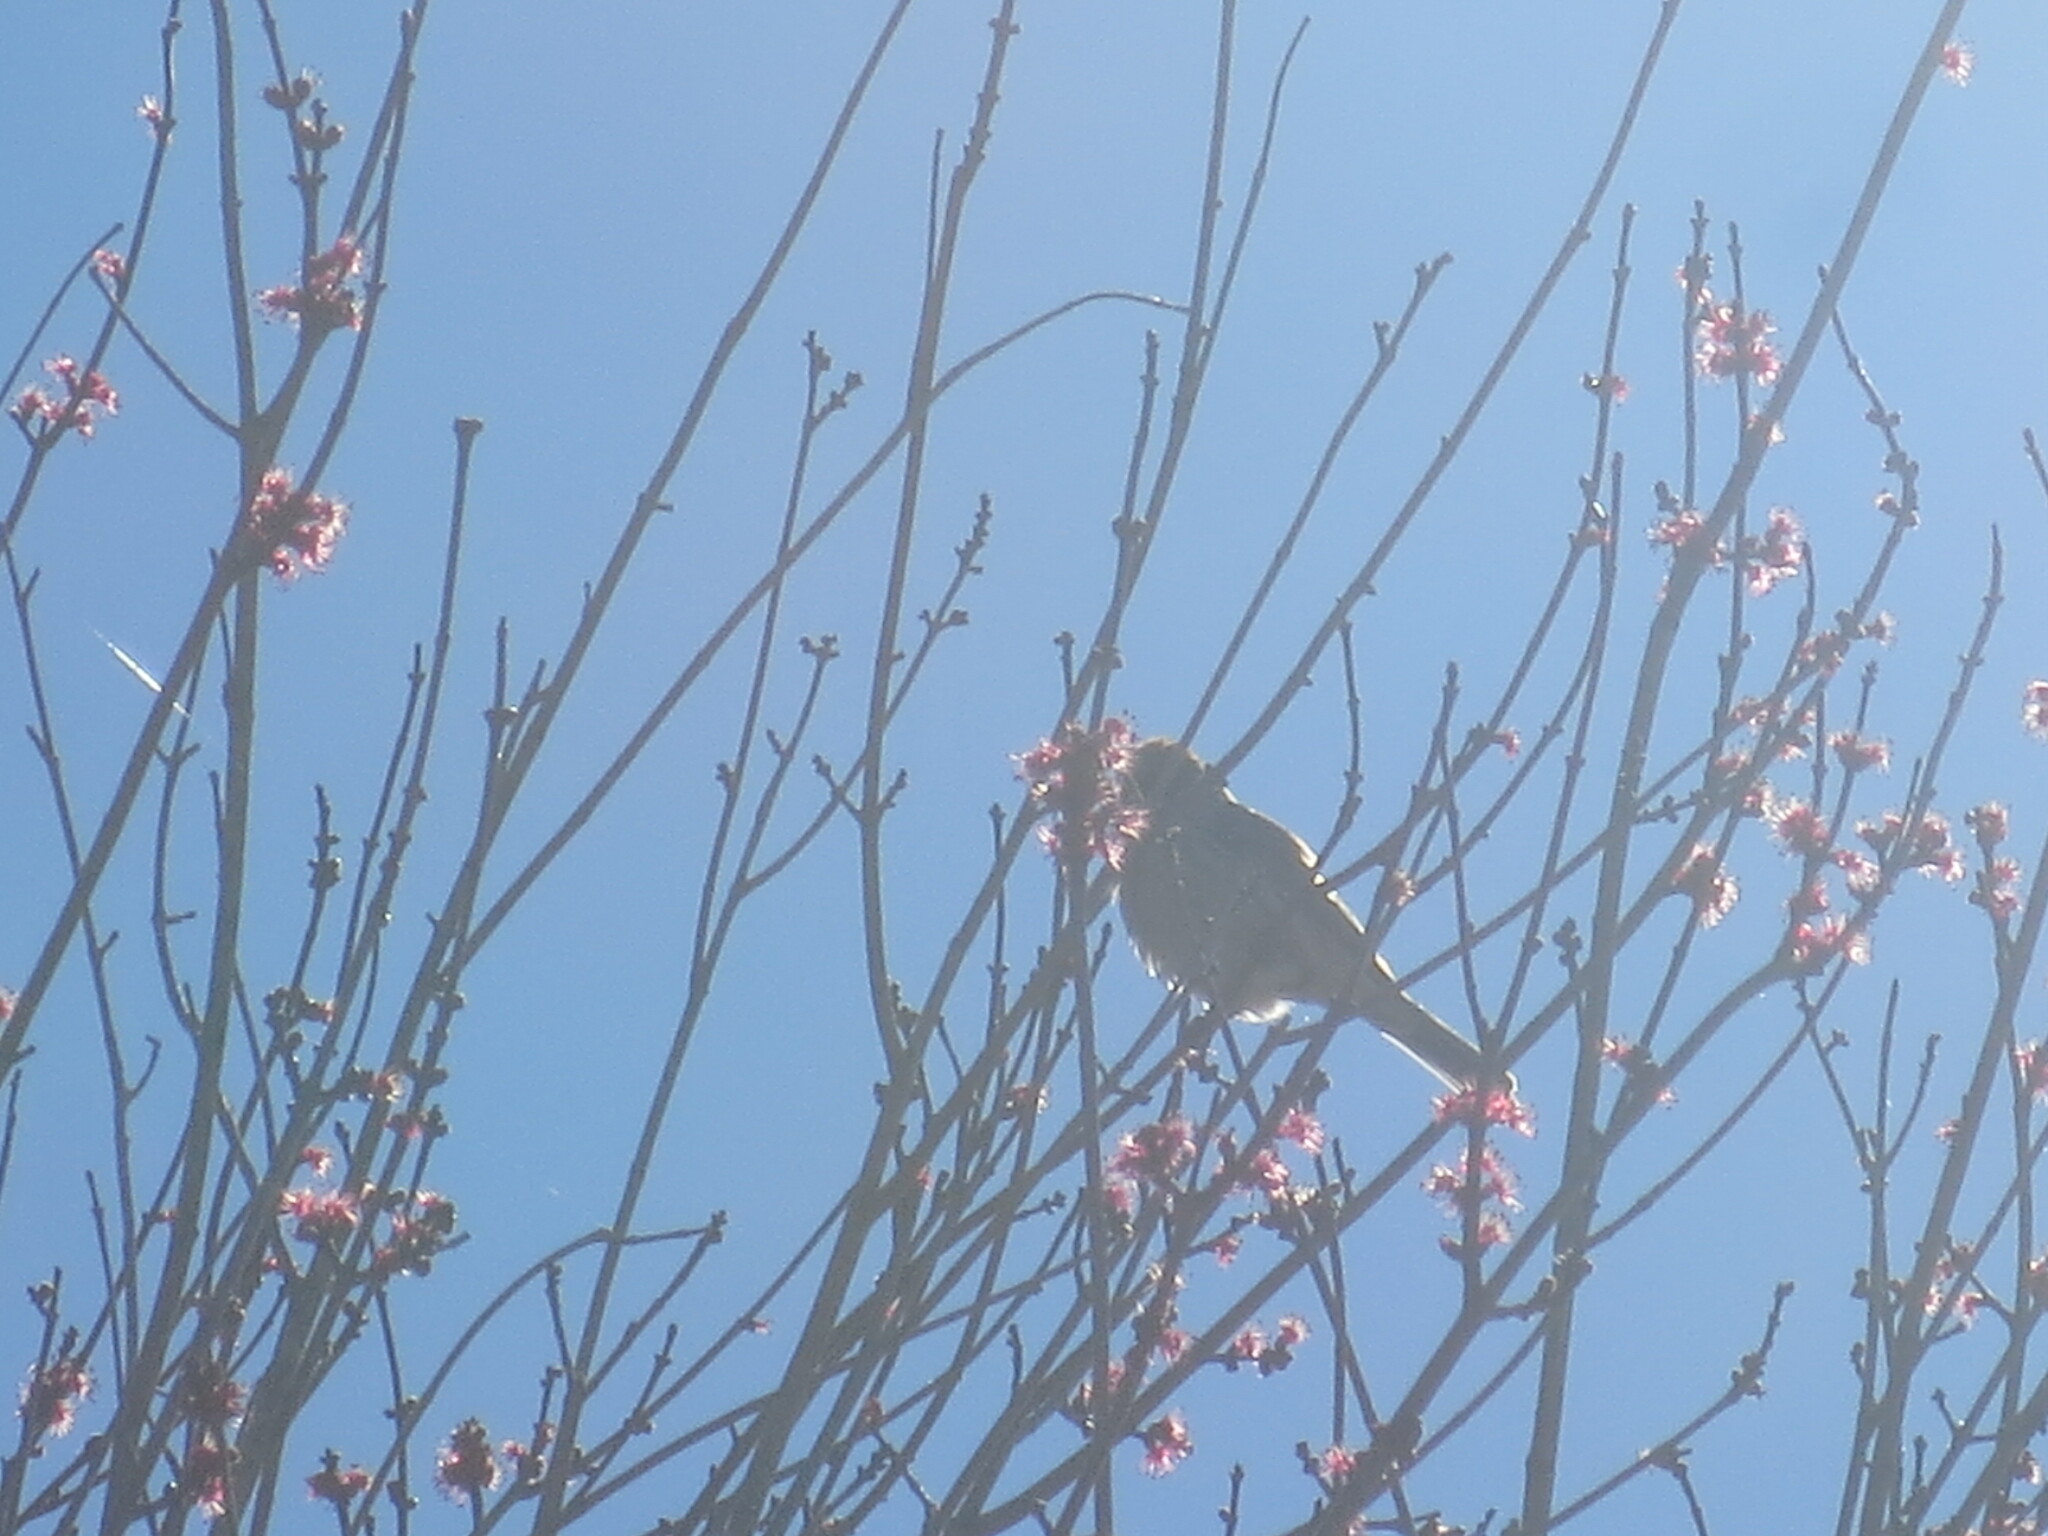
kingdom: Animalia
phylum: Chordata
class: Aves
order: Passeriformes
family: Fringillidae
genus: Haemorhous
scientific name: Haemorhous mexicanus
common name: House finch
